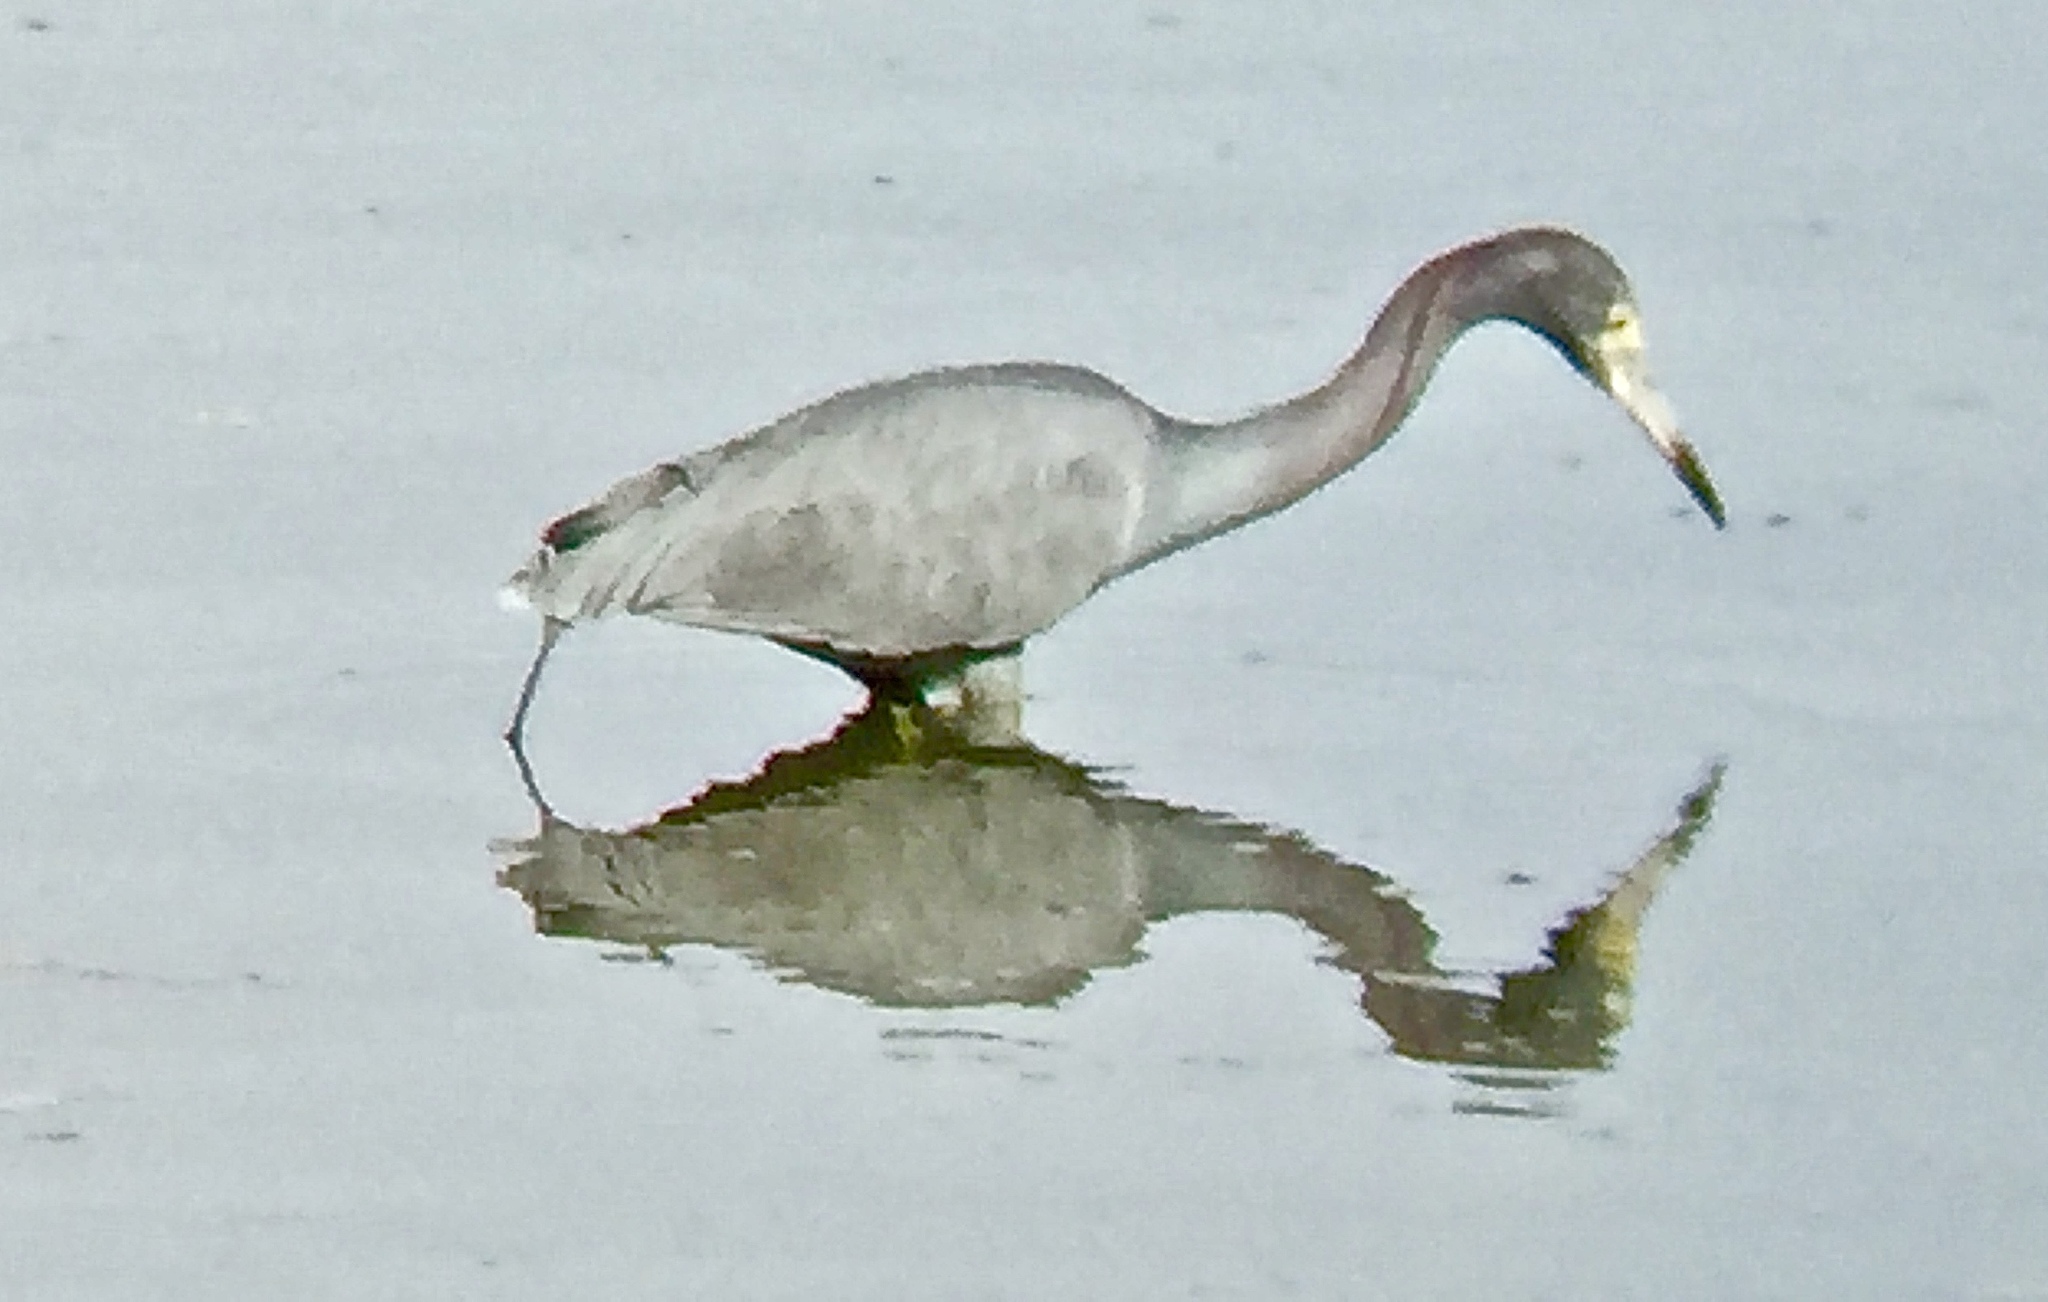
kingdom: Animalia
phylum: Chordata
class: Aves
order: Pelecaniformes
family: Ardeidae
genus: Egretta
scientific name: Egretta caerulea
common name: Little blue heron
